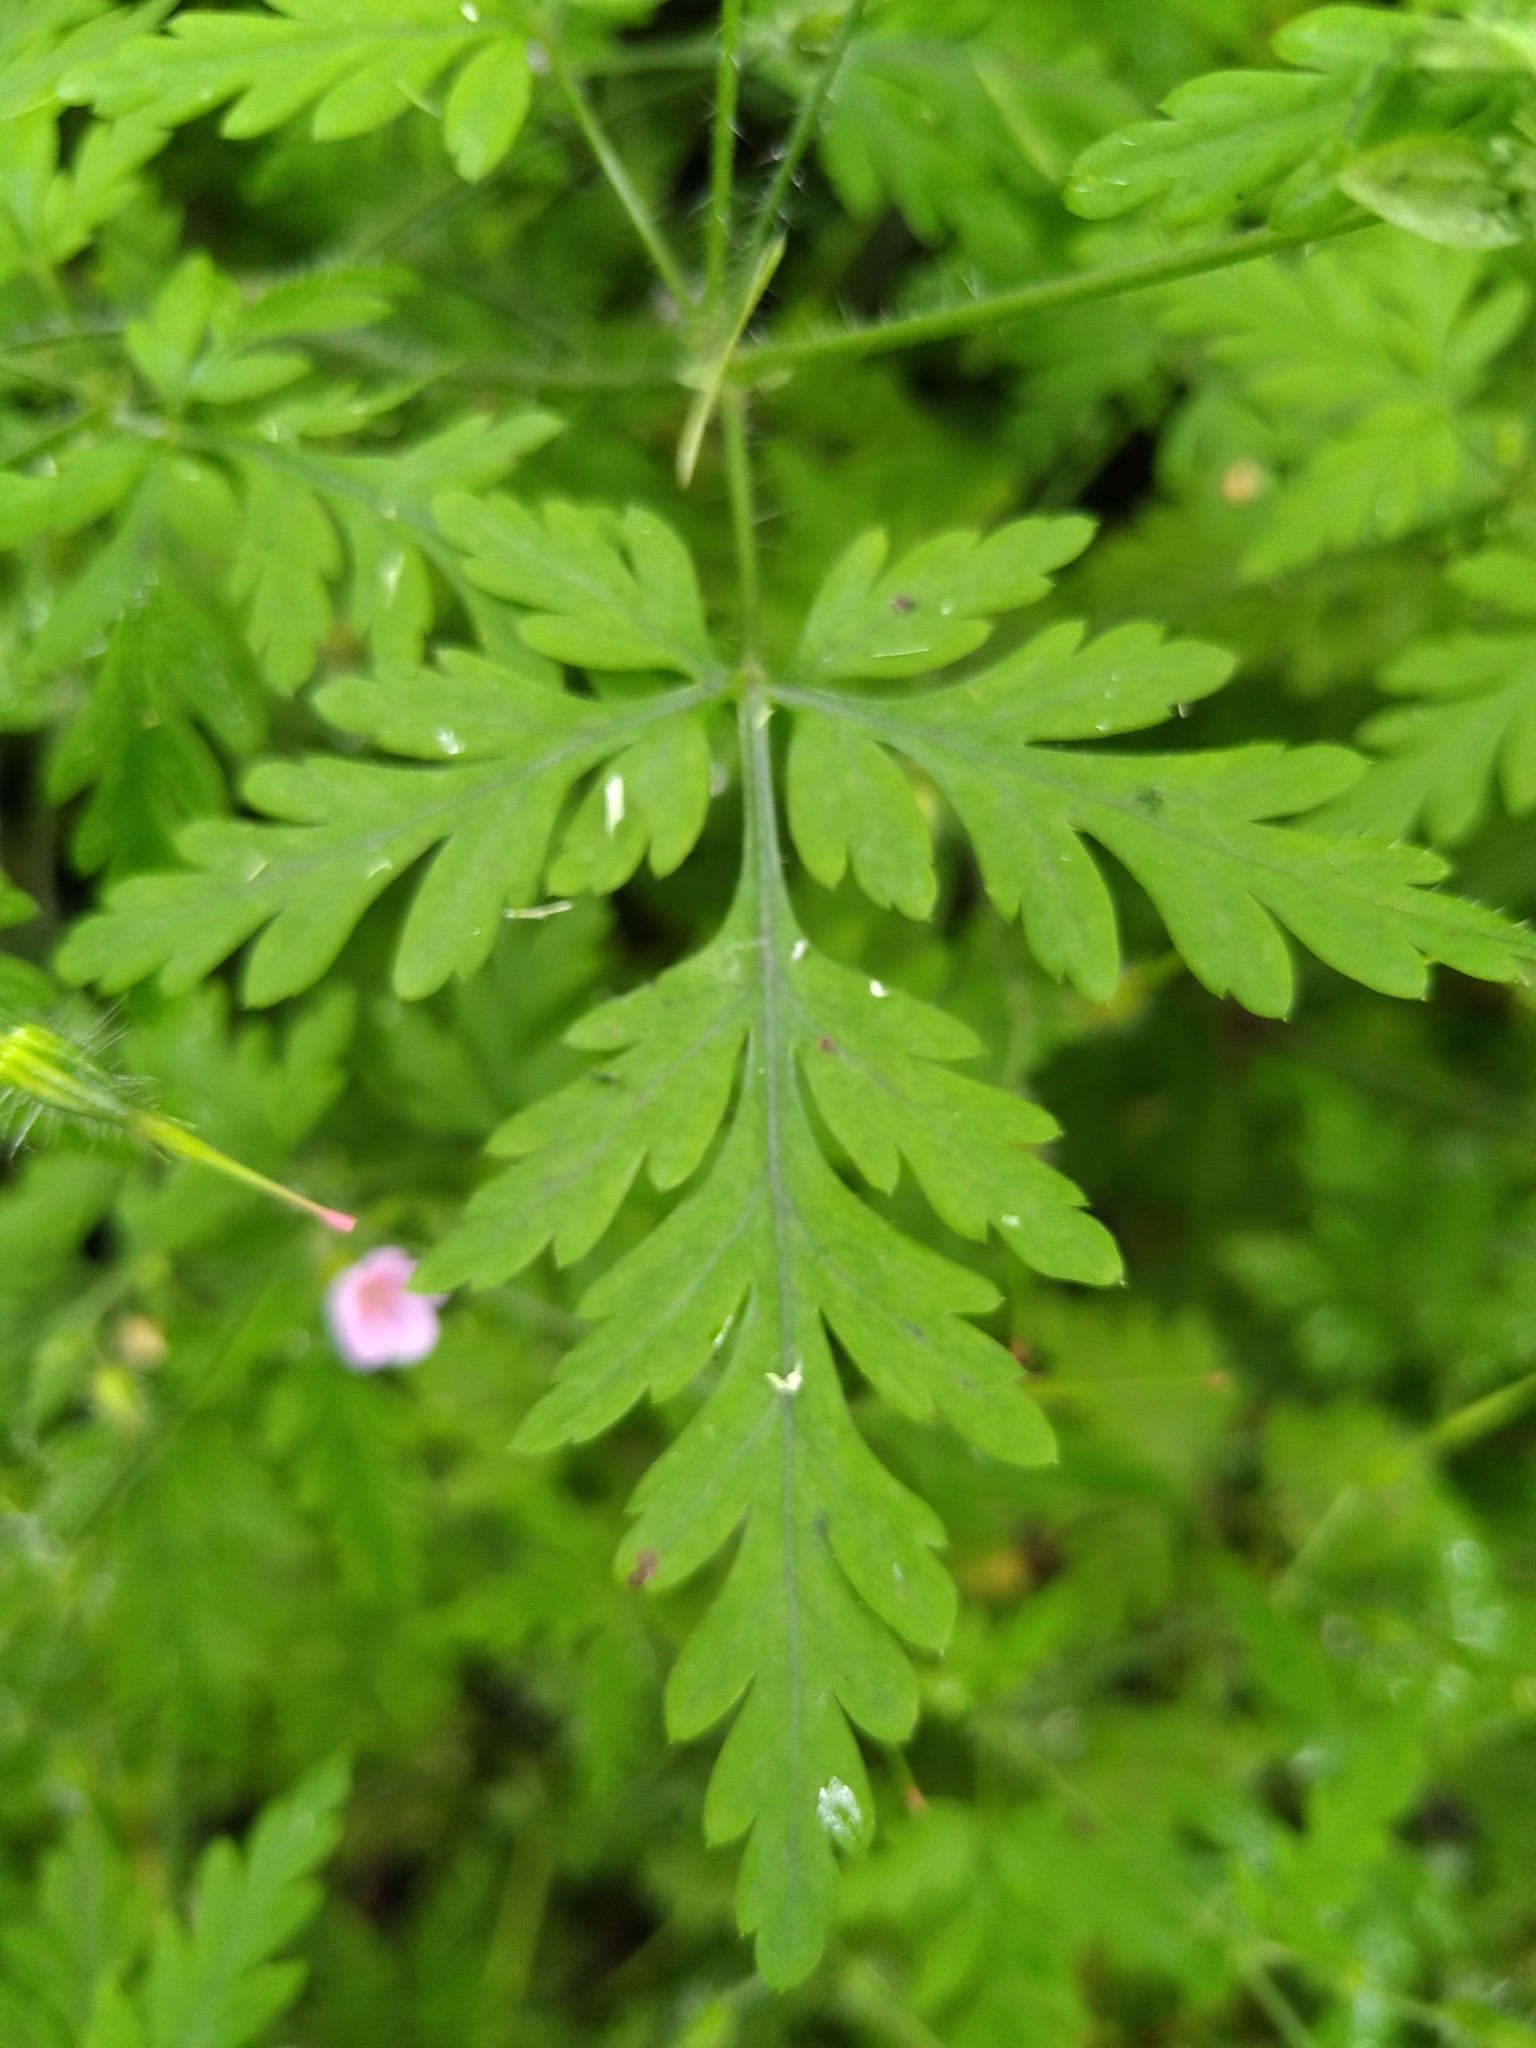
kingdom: Plantae
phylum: Tracheophyta
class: Magnoliopsida
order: Geraniales
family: Geraniaceae
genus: Geranium
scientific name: Geranium robertianum
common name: Herb-robert
